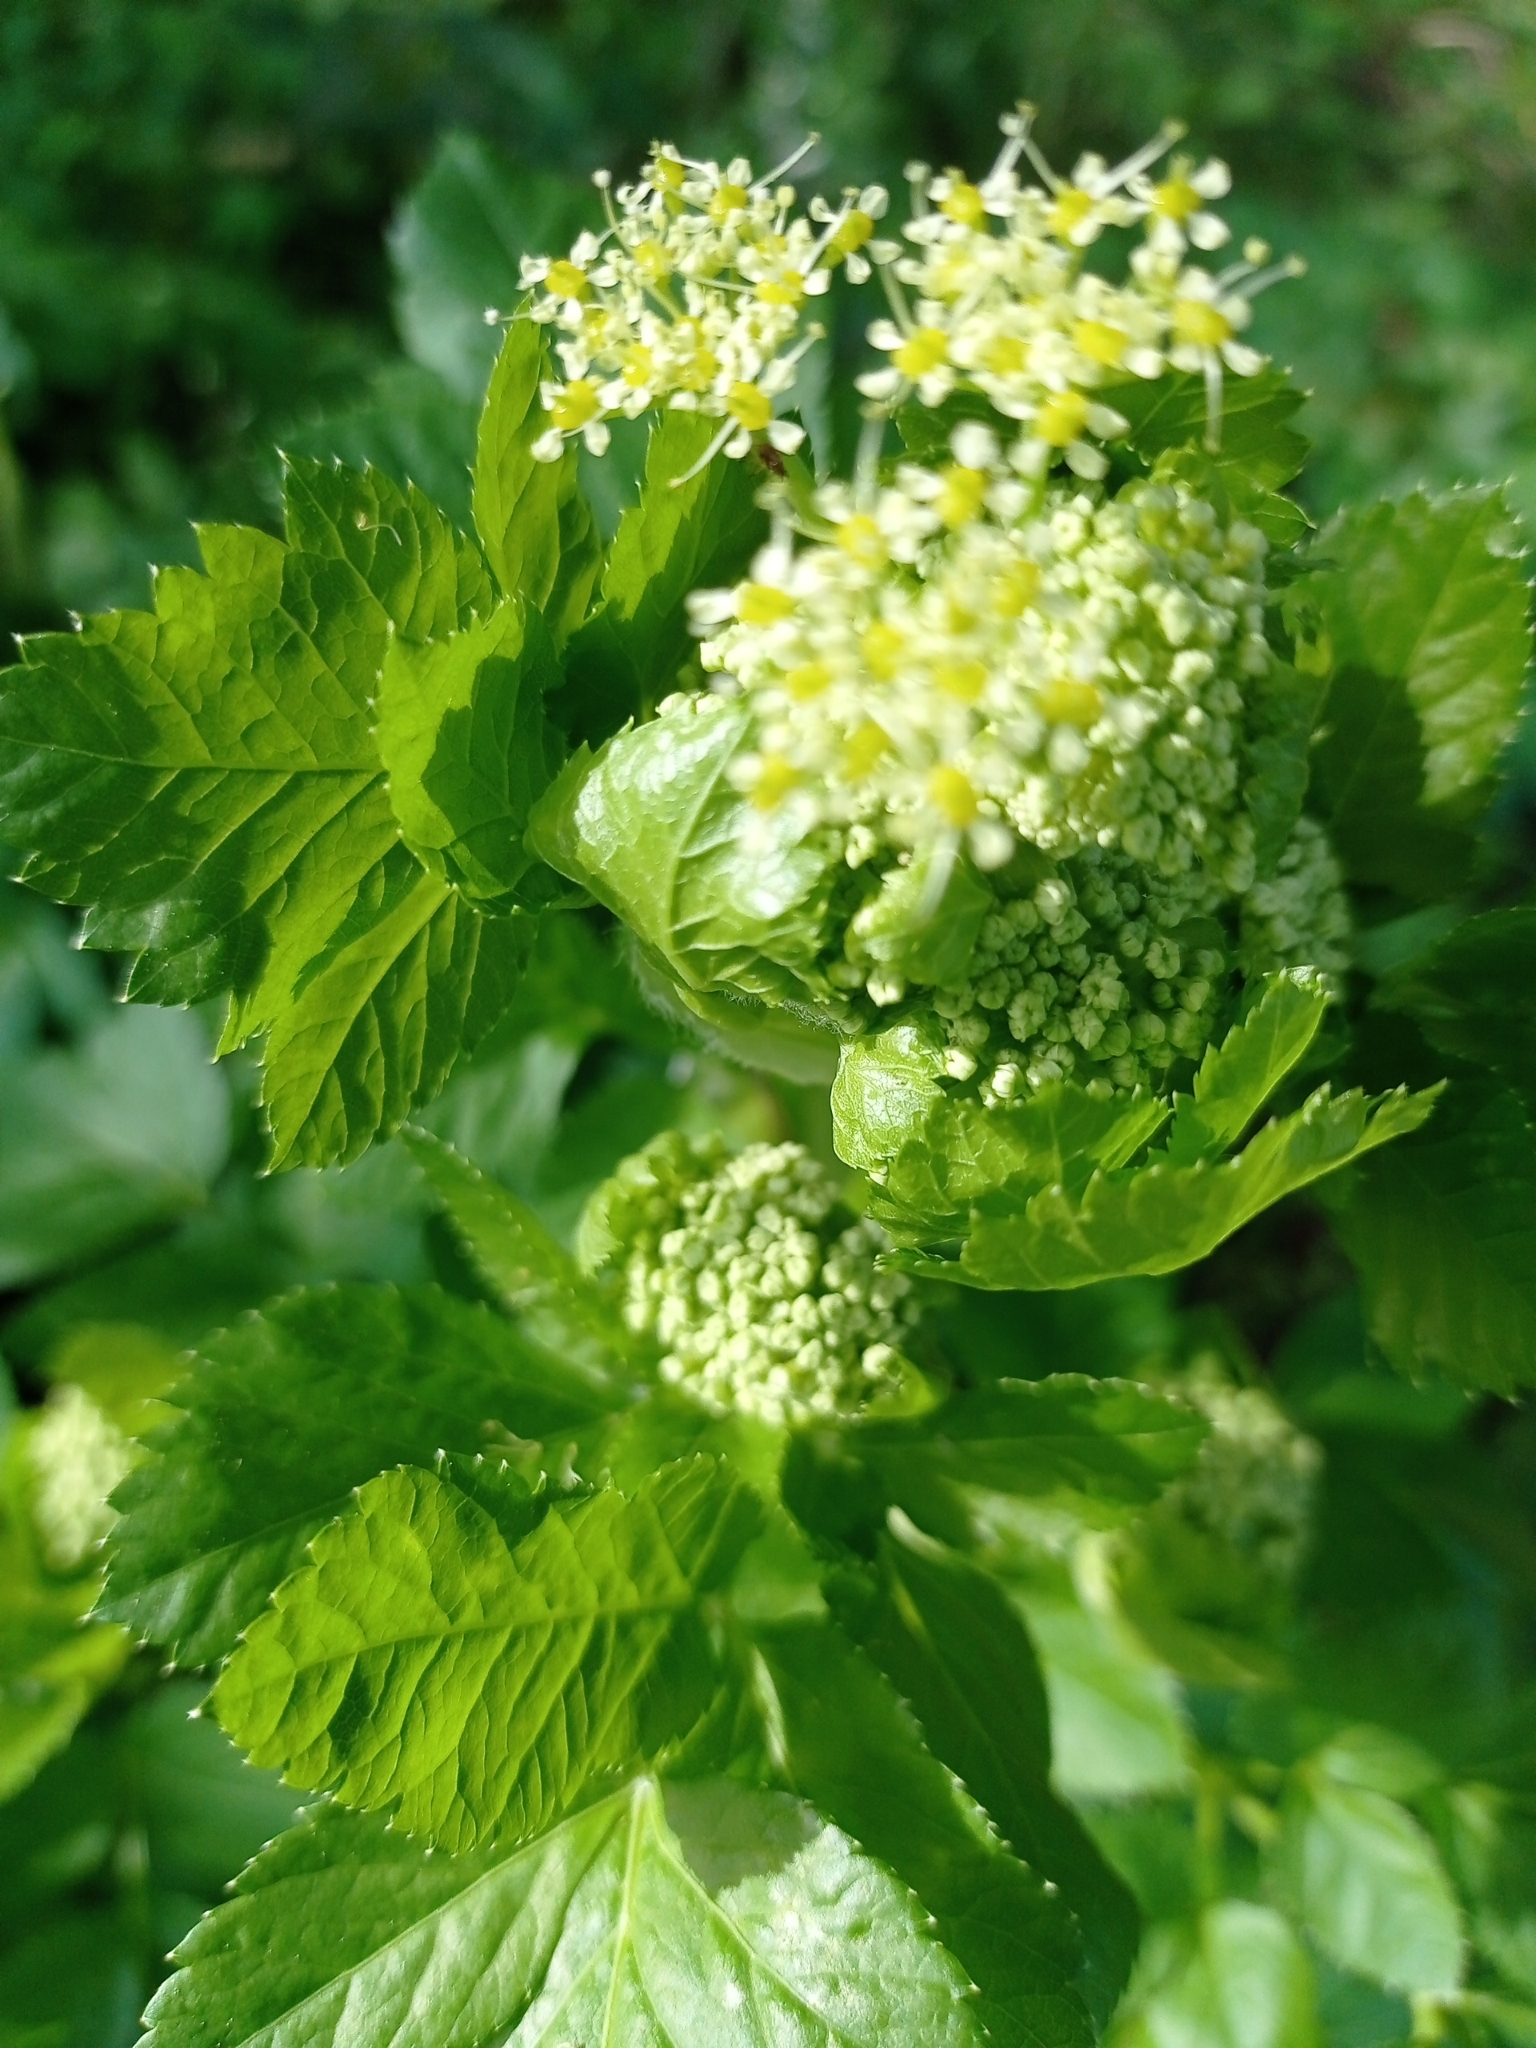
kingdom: Plantae
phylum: Tracheophyta
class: Magnoliopsida
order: Apiales
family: Apiaceae
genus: Smyrnium
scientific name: Smyrnium olusatrum
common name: Alexanders
